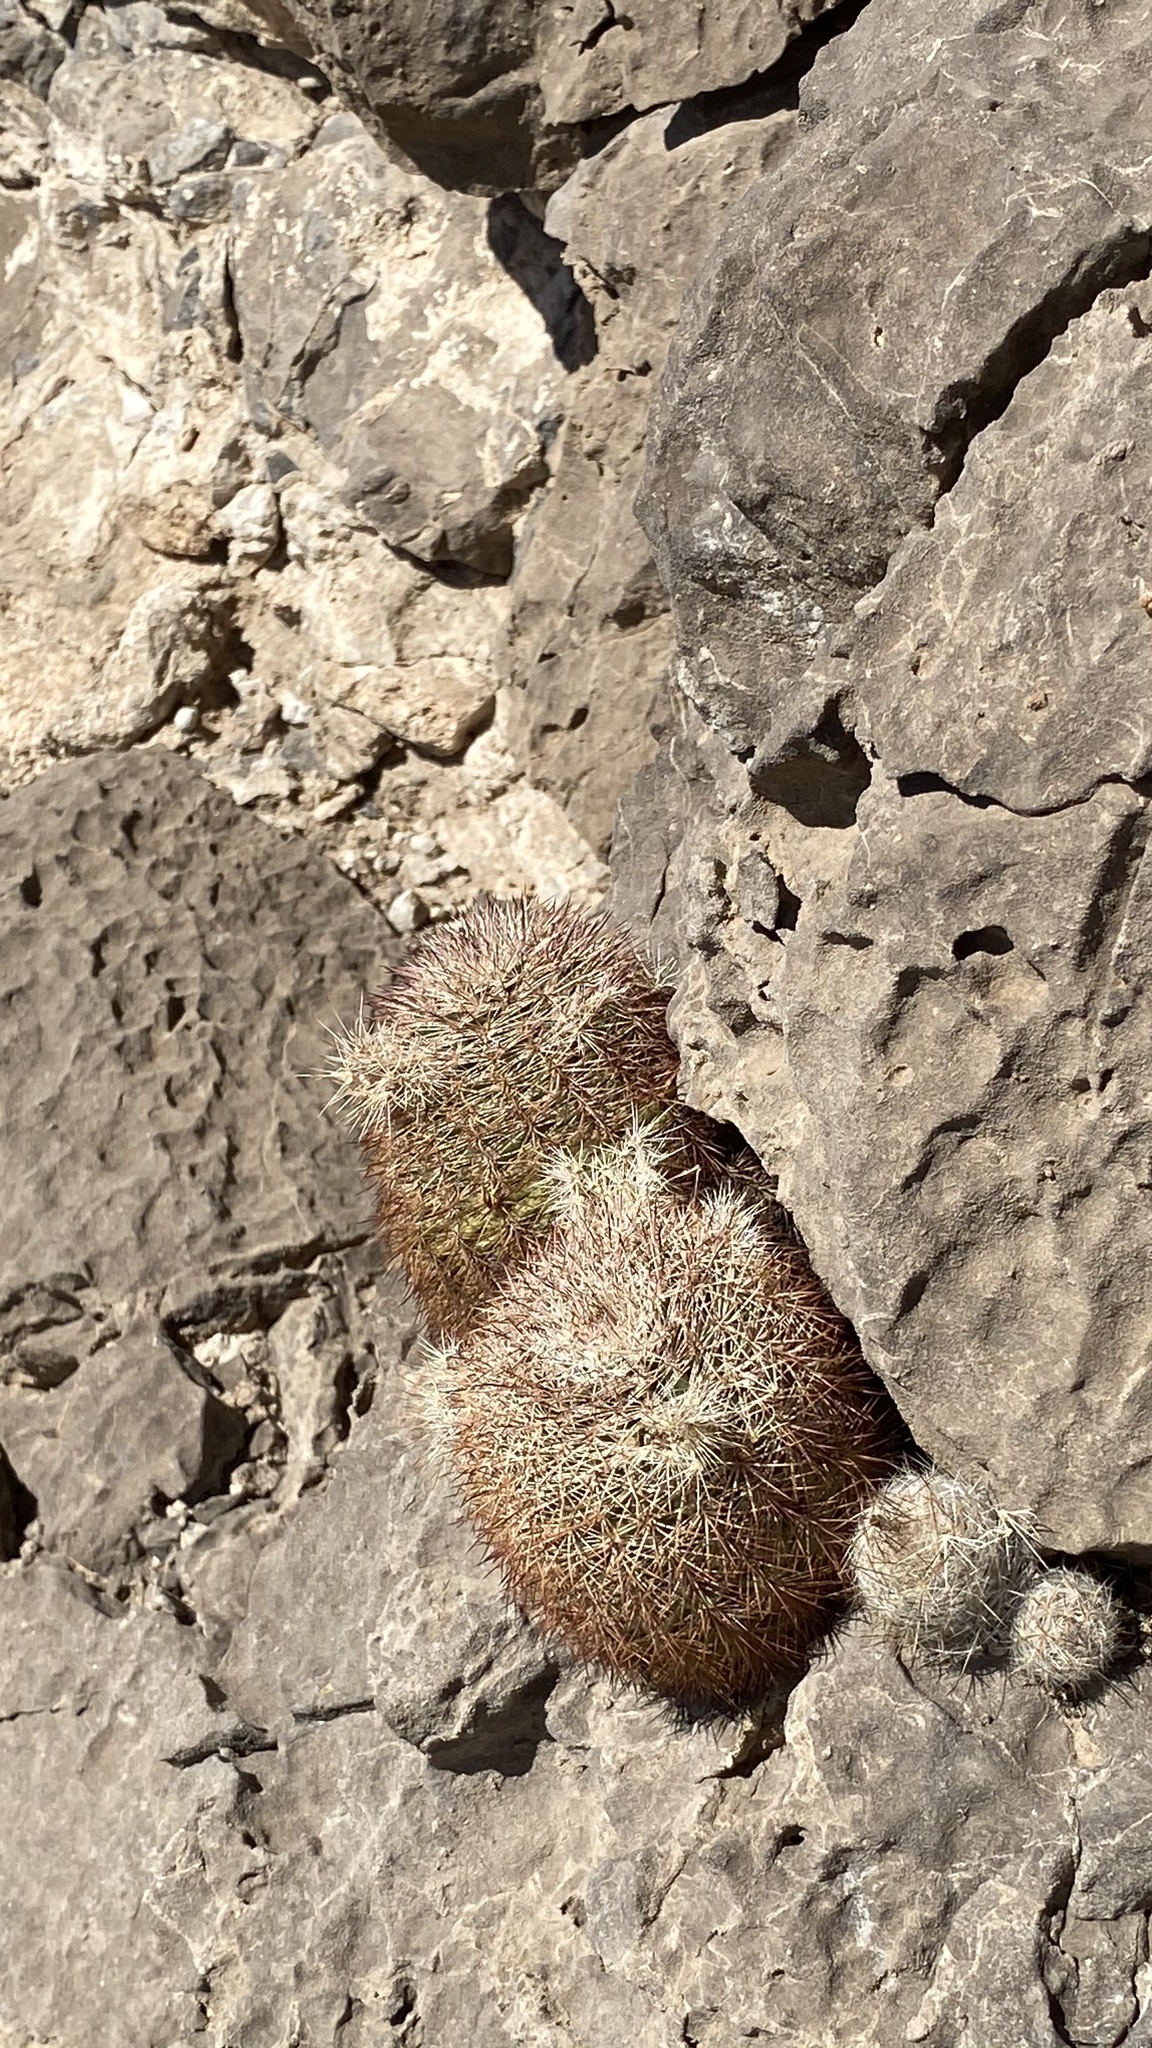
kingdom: Plantae
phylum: Tracheophyta
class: Magnoliopsida
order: Caryophyllales
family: Cactaceae
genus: Echinocereus
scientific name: Echinocereus dasyacanthus
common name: Spiny hedgehog cactus
